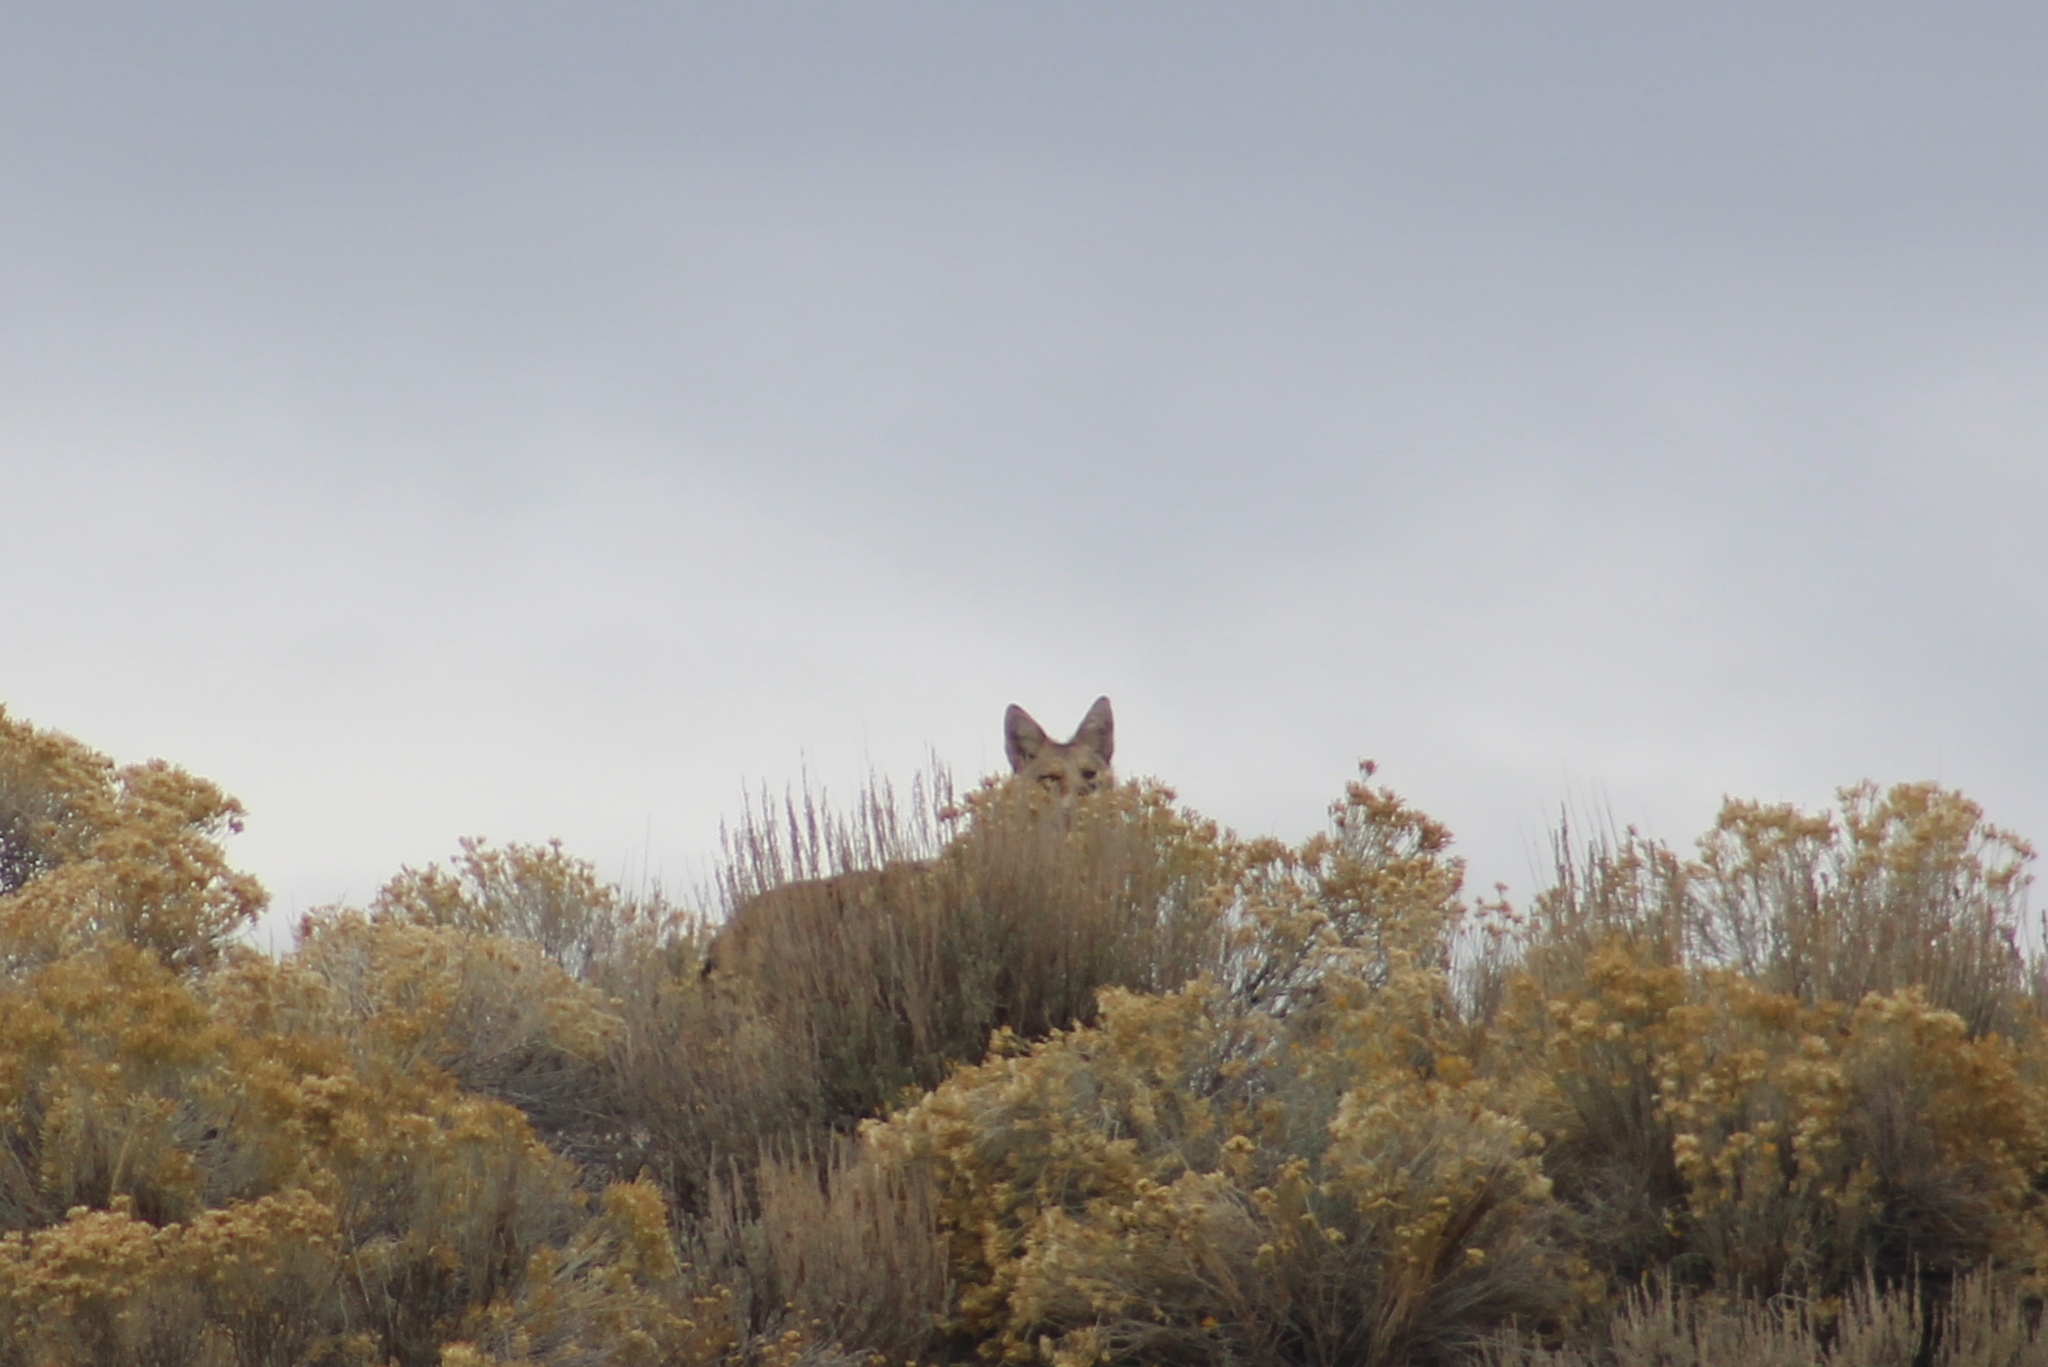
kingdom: Animalia
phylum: Chordata
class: Mammalia
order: Carnivora
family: Canidae
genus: Canis
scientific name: Canis latrans
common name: Coyote
